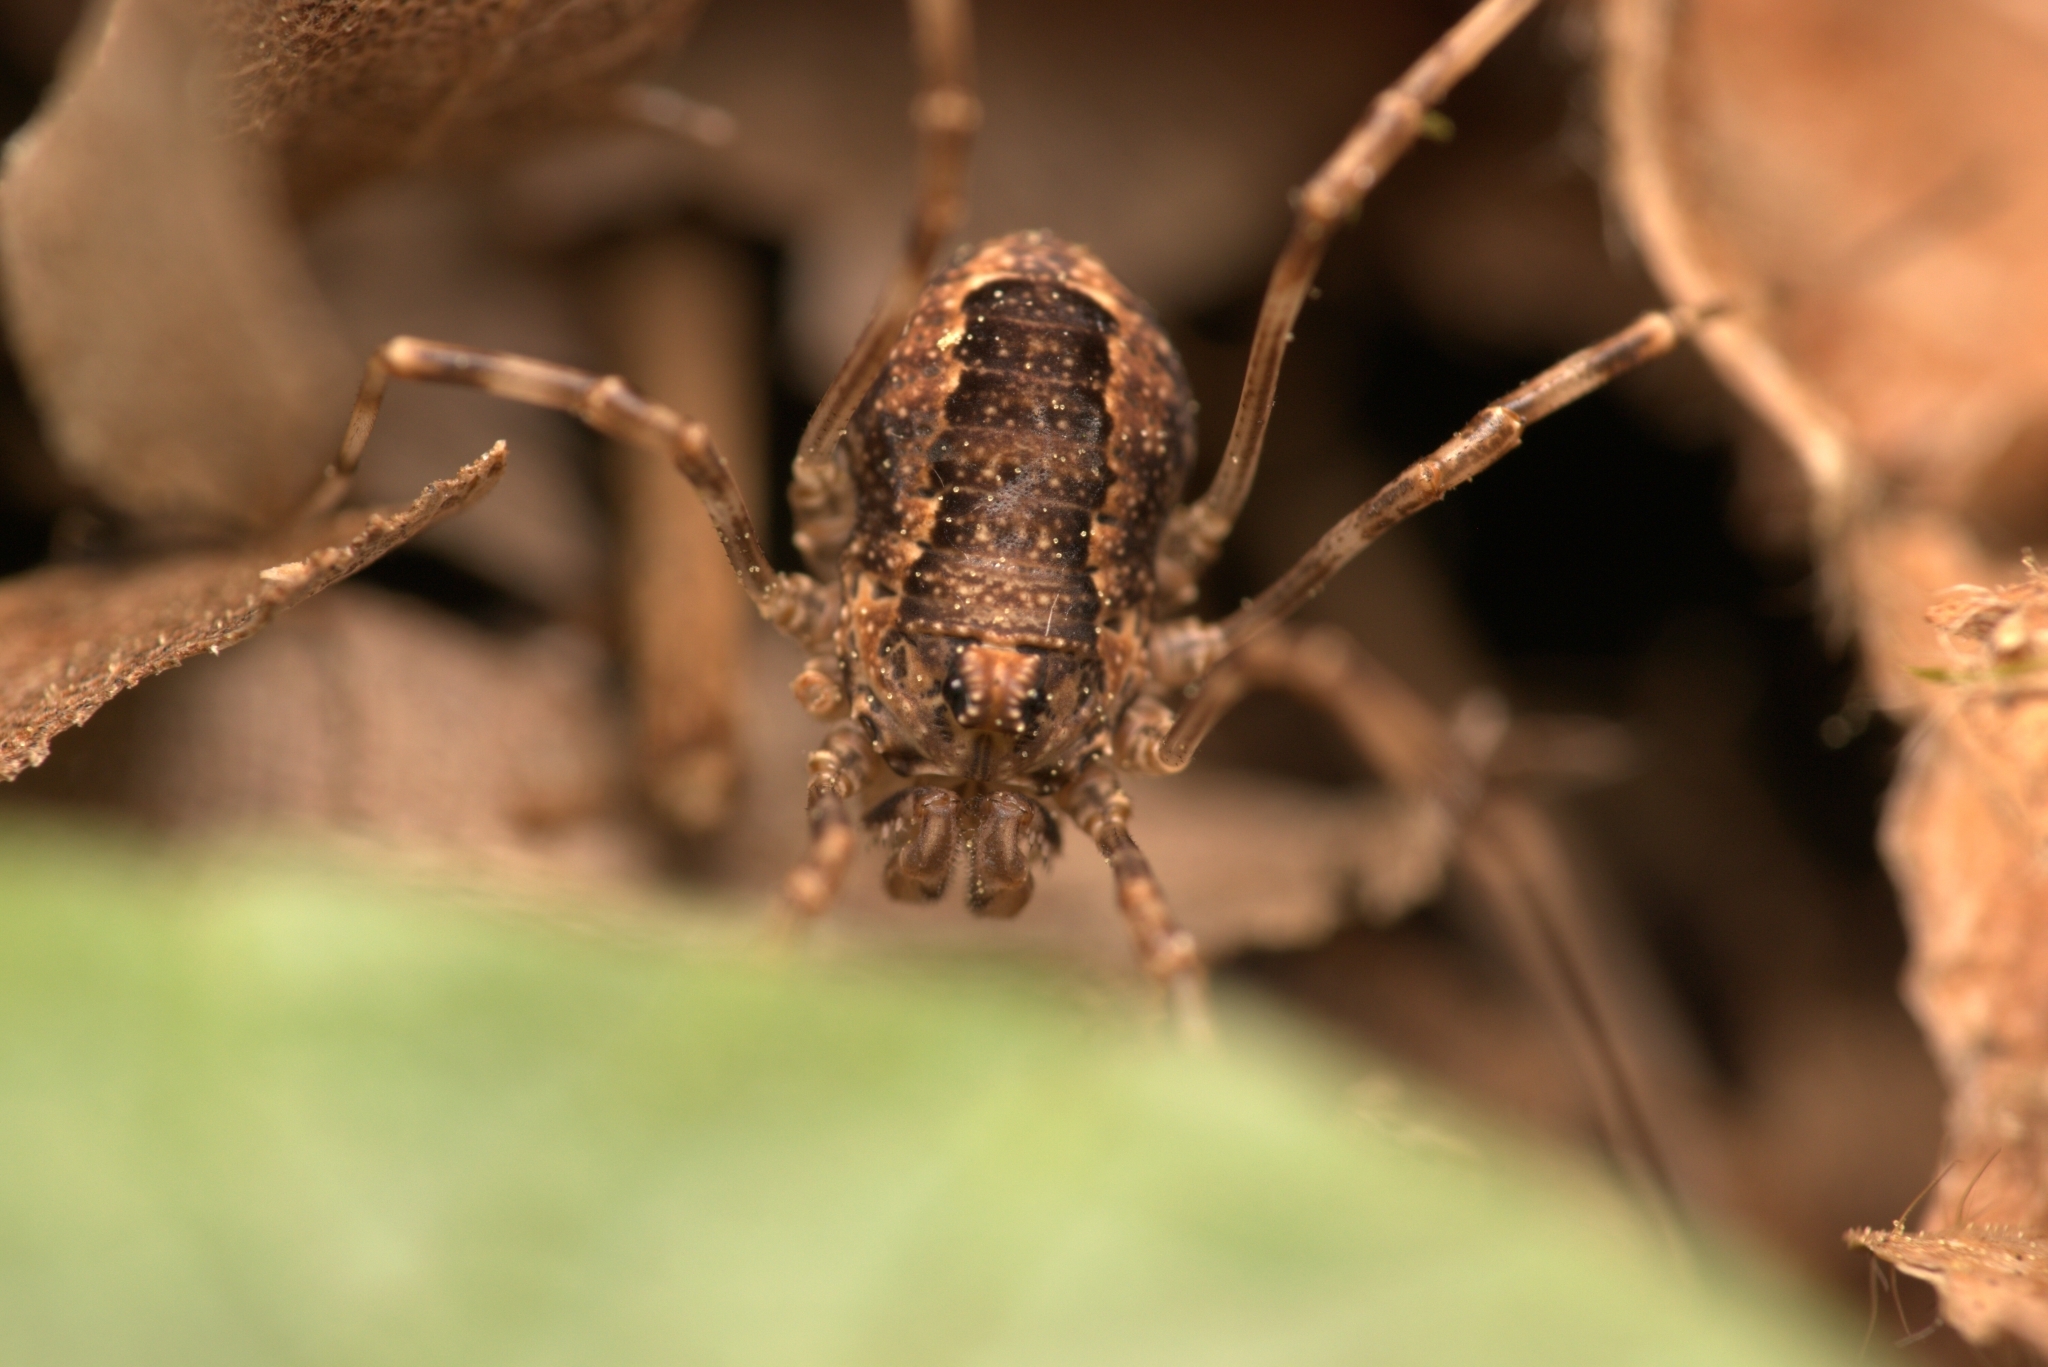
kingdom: Animalia
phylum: Arthropoda
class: Arachnida
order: Opiliones
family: Phalangiidae
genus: Rilaena
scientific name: Rilaena triangularis
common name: Spring harvestman
